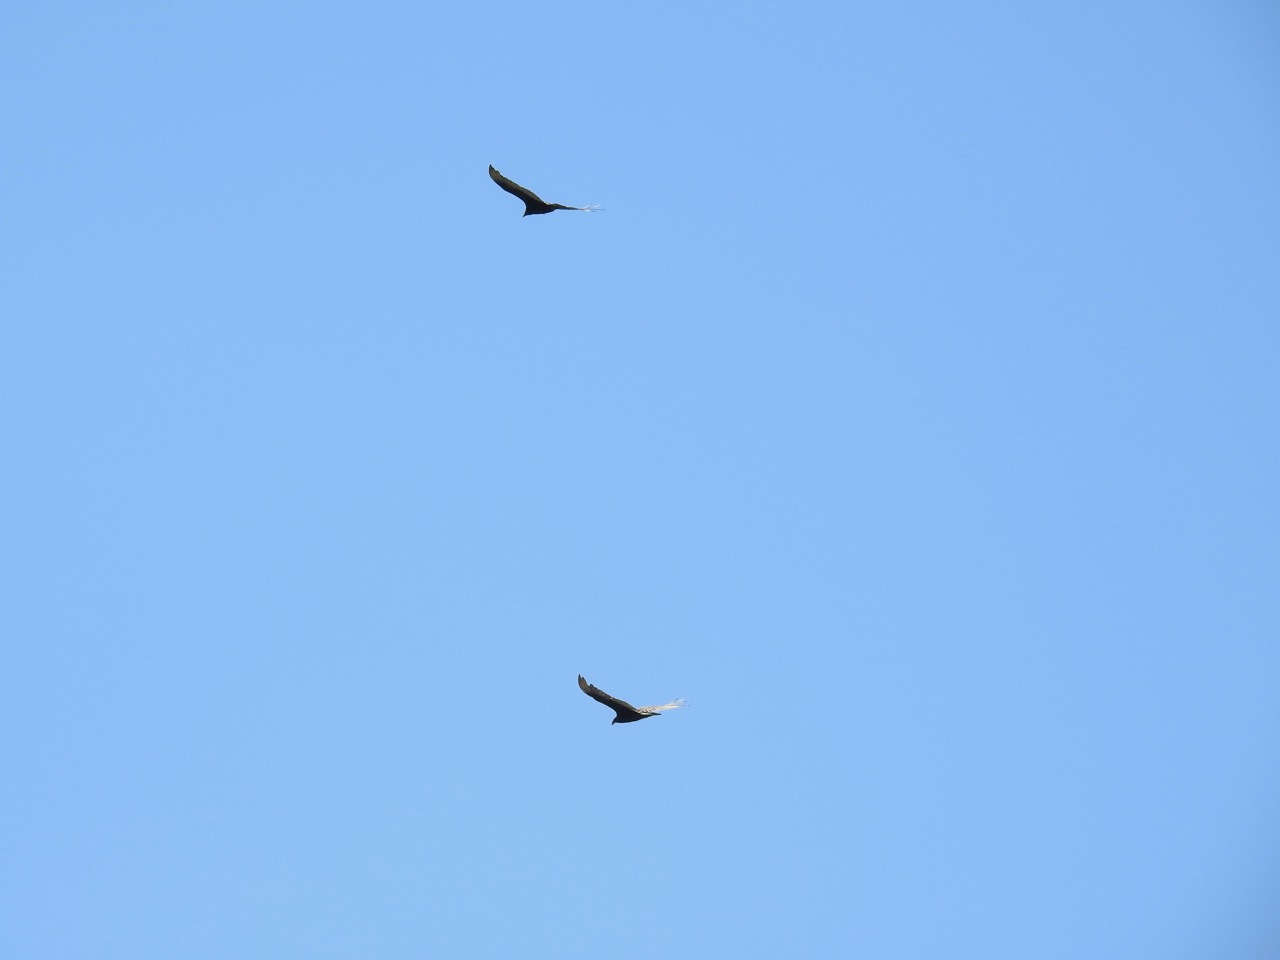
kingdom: Animalia
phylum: Chordata
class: Aves
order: Accipitriformes
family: Cathartidae
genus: Cathartes
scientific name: Cathartes aura
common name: Turkey vulture
